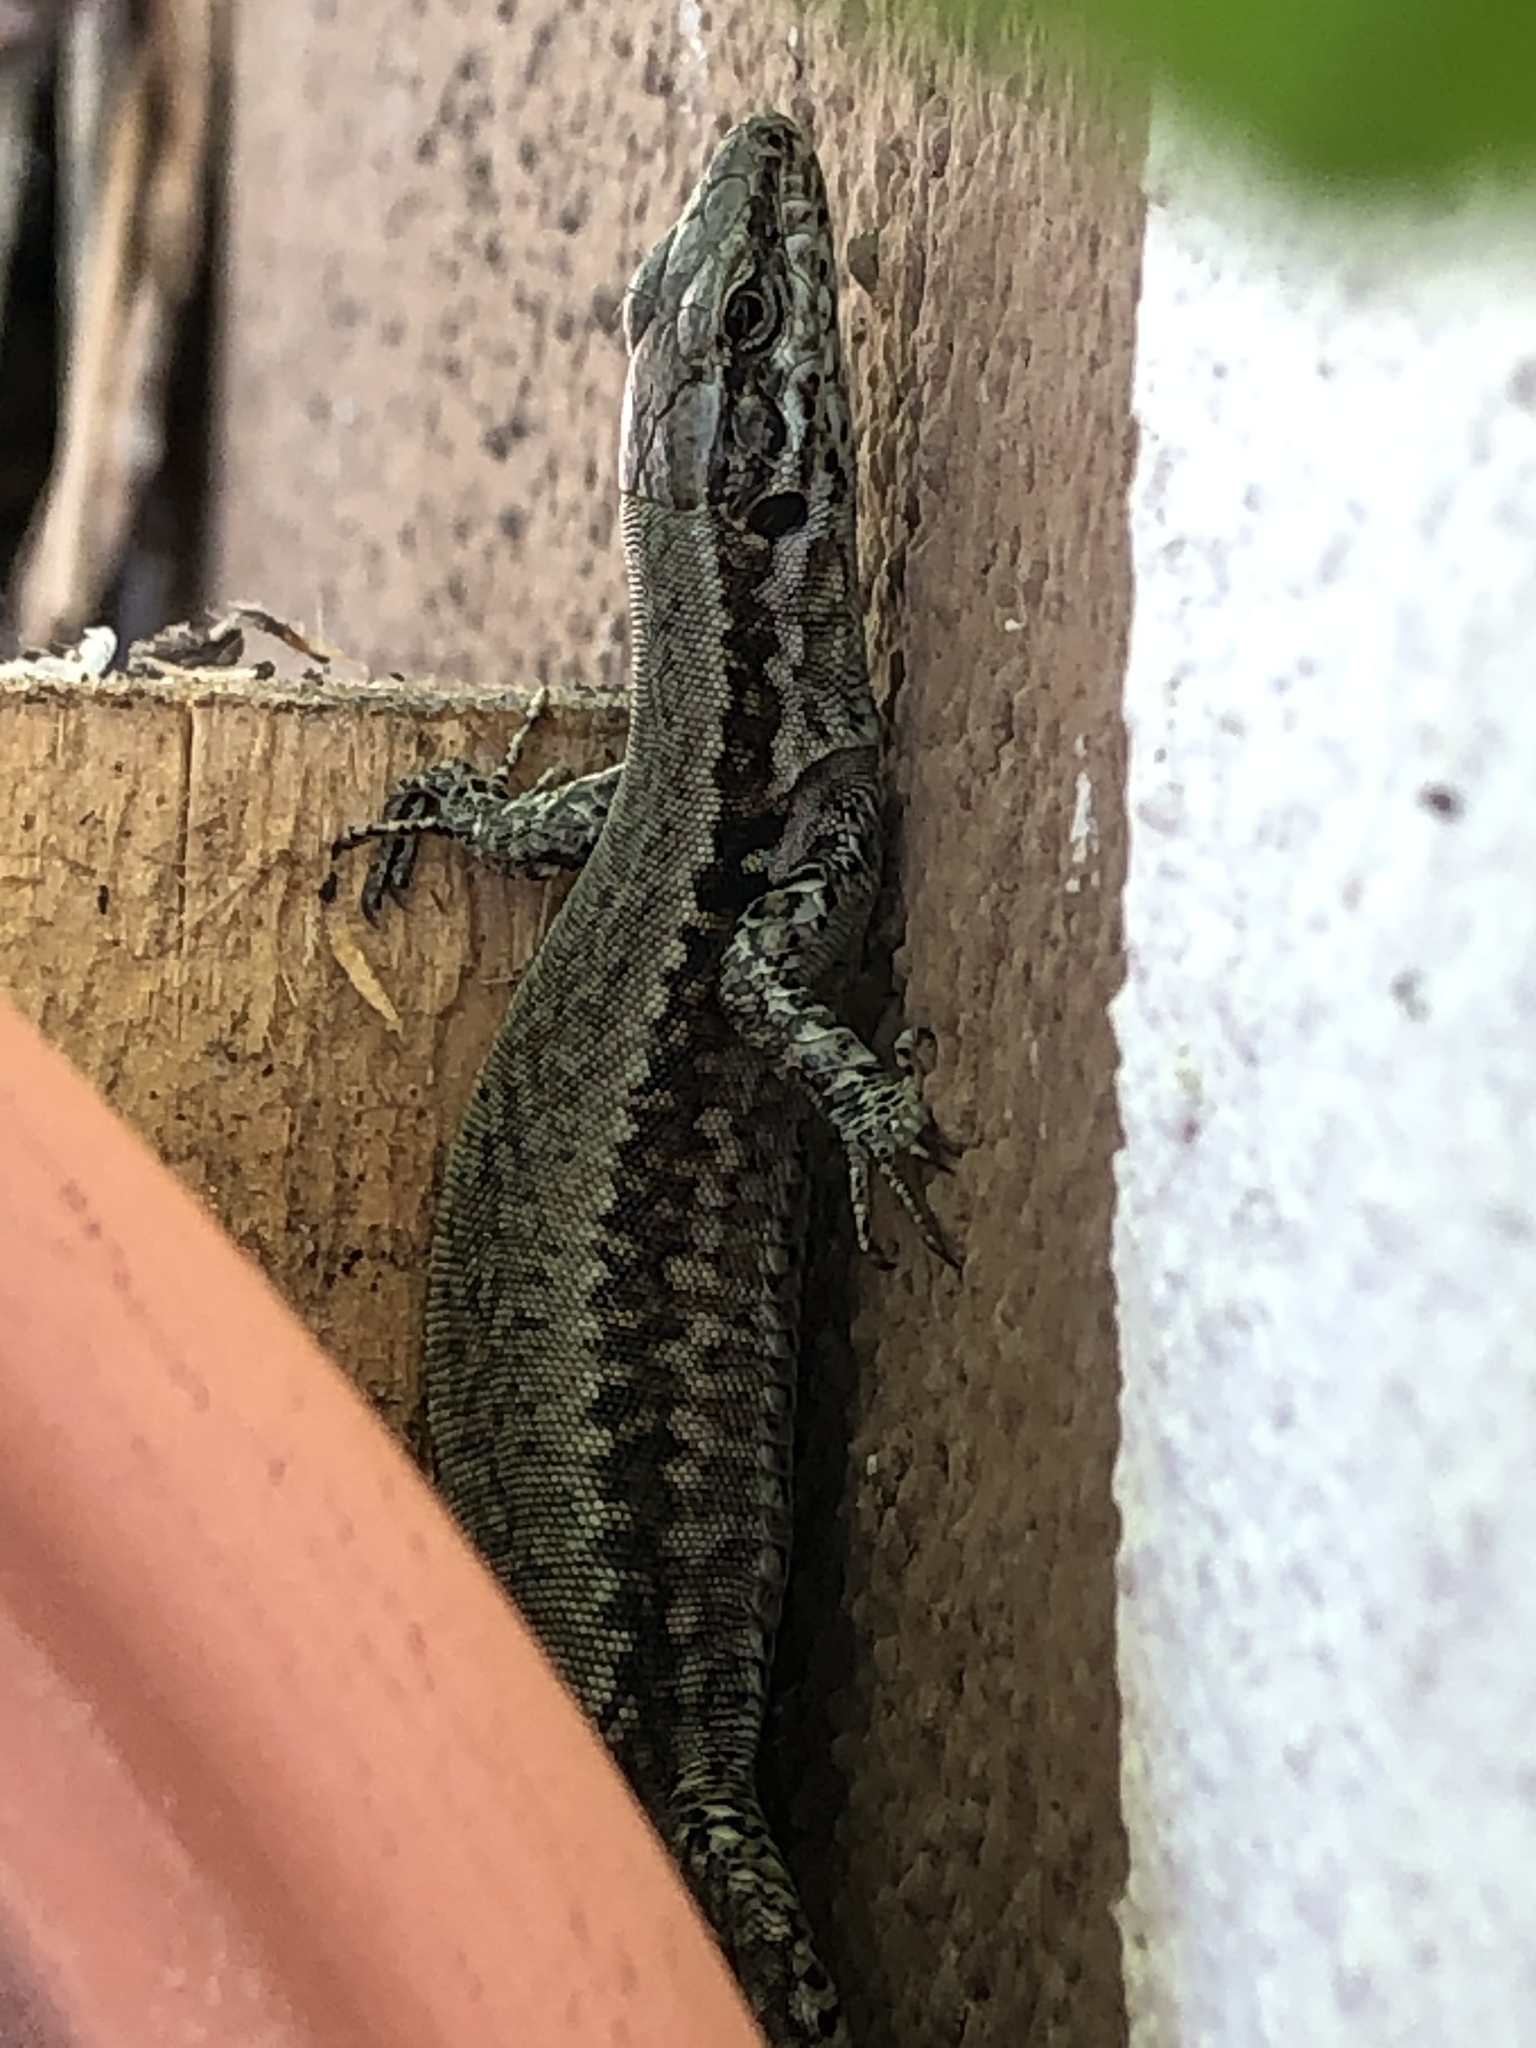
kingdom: Animalia
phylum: Chordata
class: Squamata
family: Lacertidae
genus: Podarcis
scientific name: Podarcis muralis
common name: Common wall lizard
